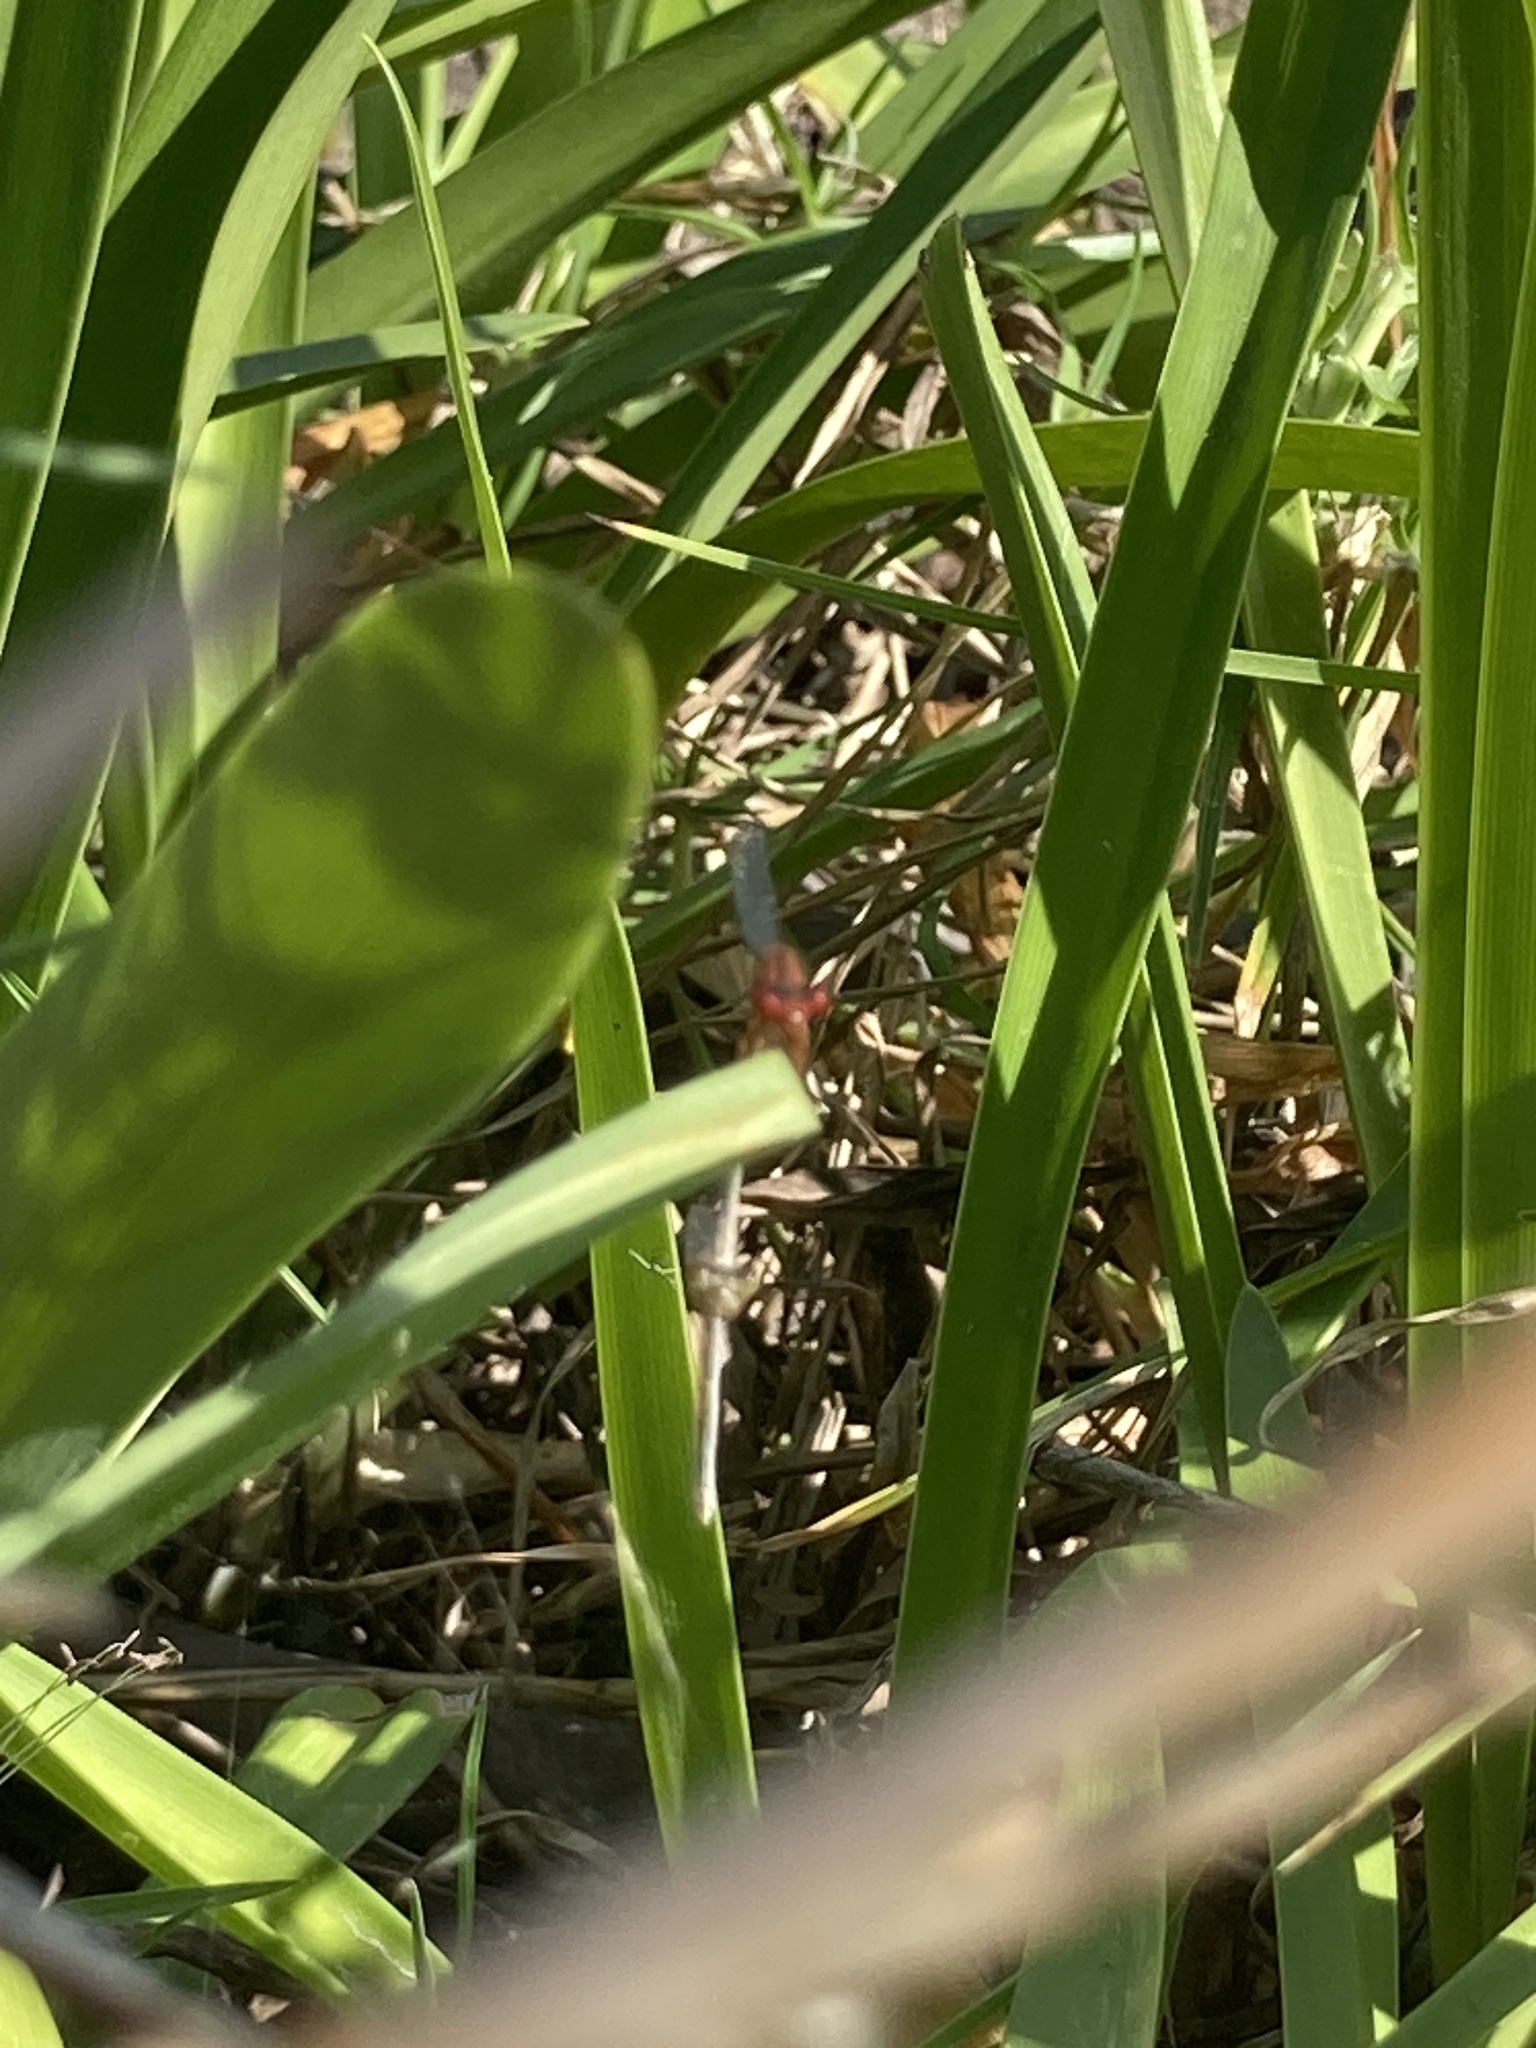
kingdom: Animalia
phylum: Arthropoda
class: Insecta
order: Odonata
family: Coenagrionidae
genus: Xanthagrion
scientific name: Xanthagrion erythroneurum
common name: Red and blue damsel
